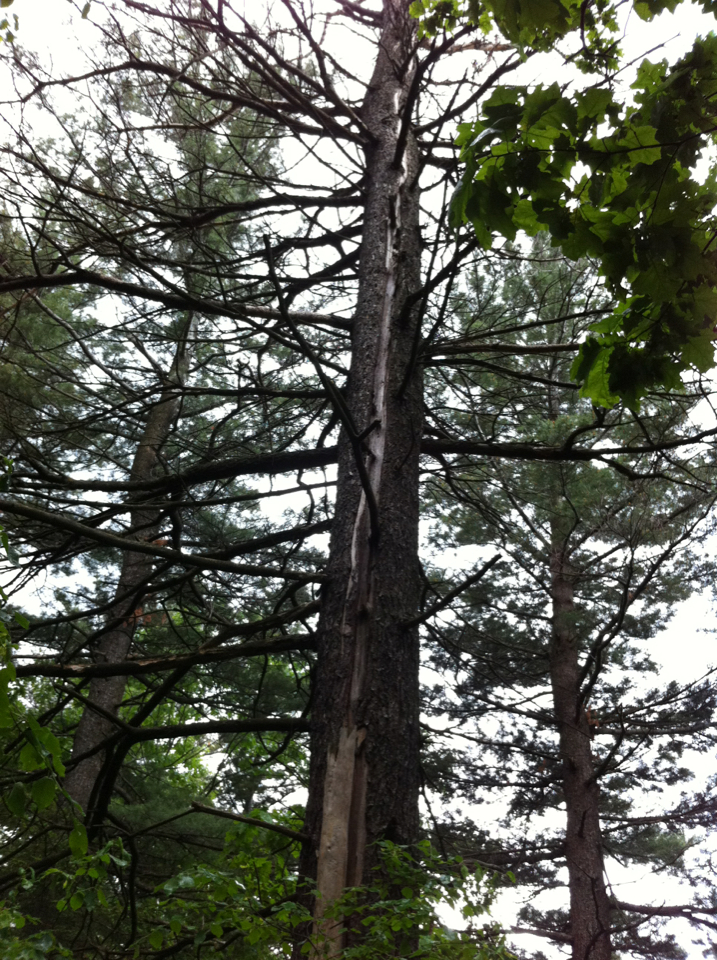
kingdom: Plantae
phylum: Tracheophyta
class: Pinopsida
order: Pinales
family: Pinaceae
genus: Pinus
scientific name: Pinus strobus
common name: Weymouth pine
